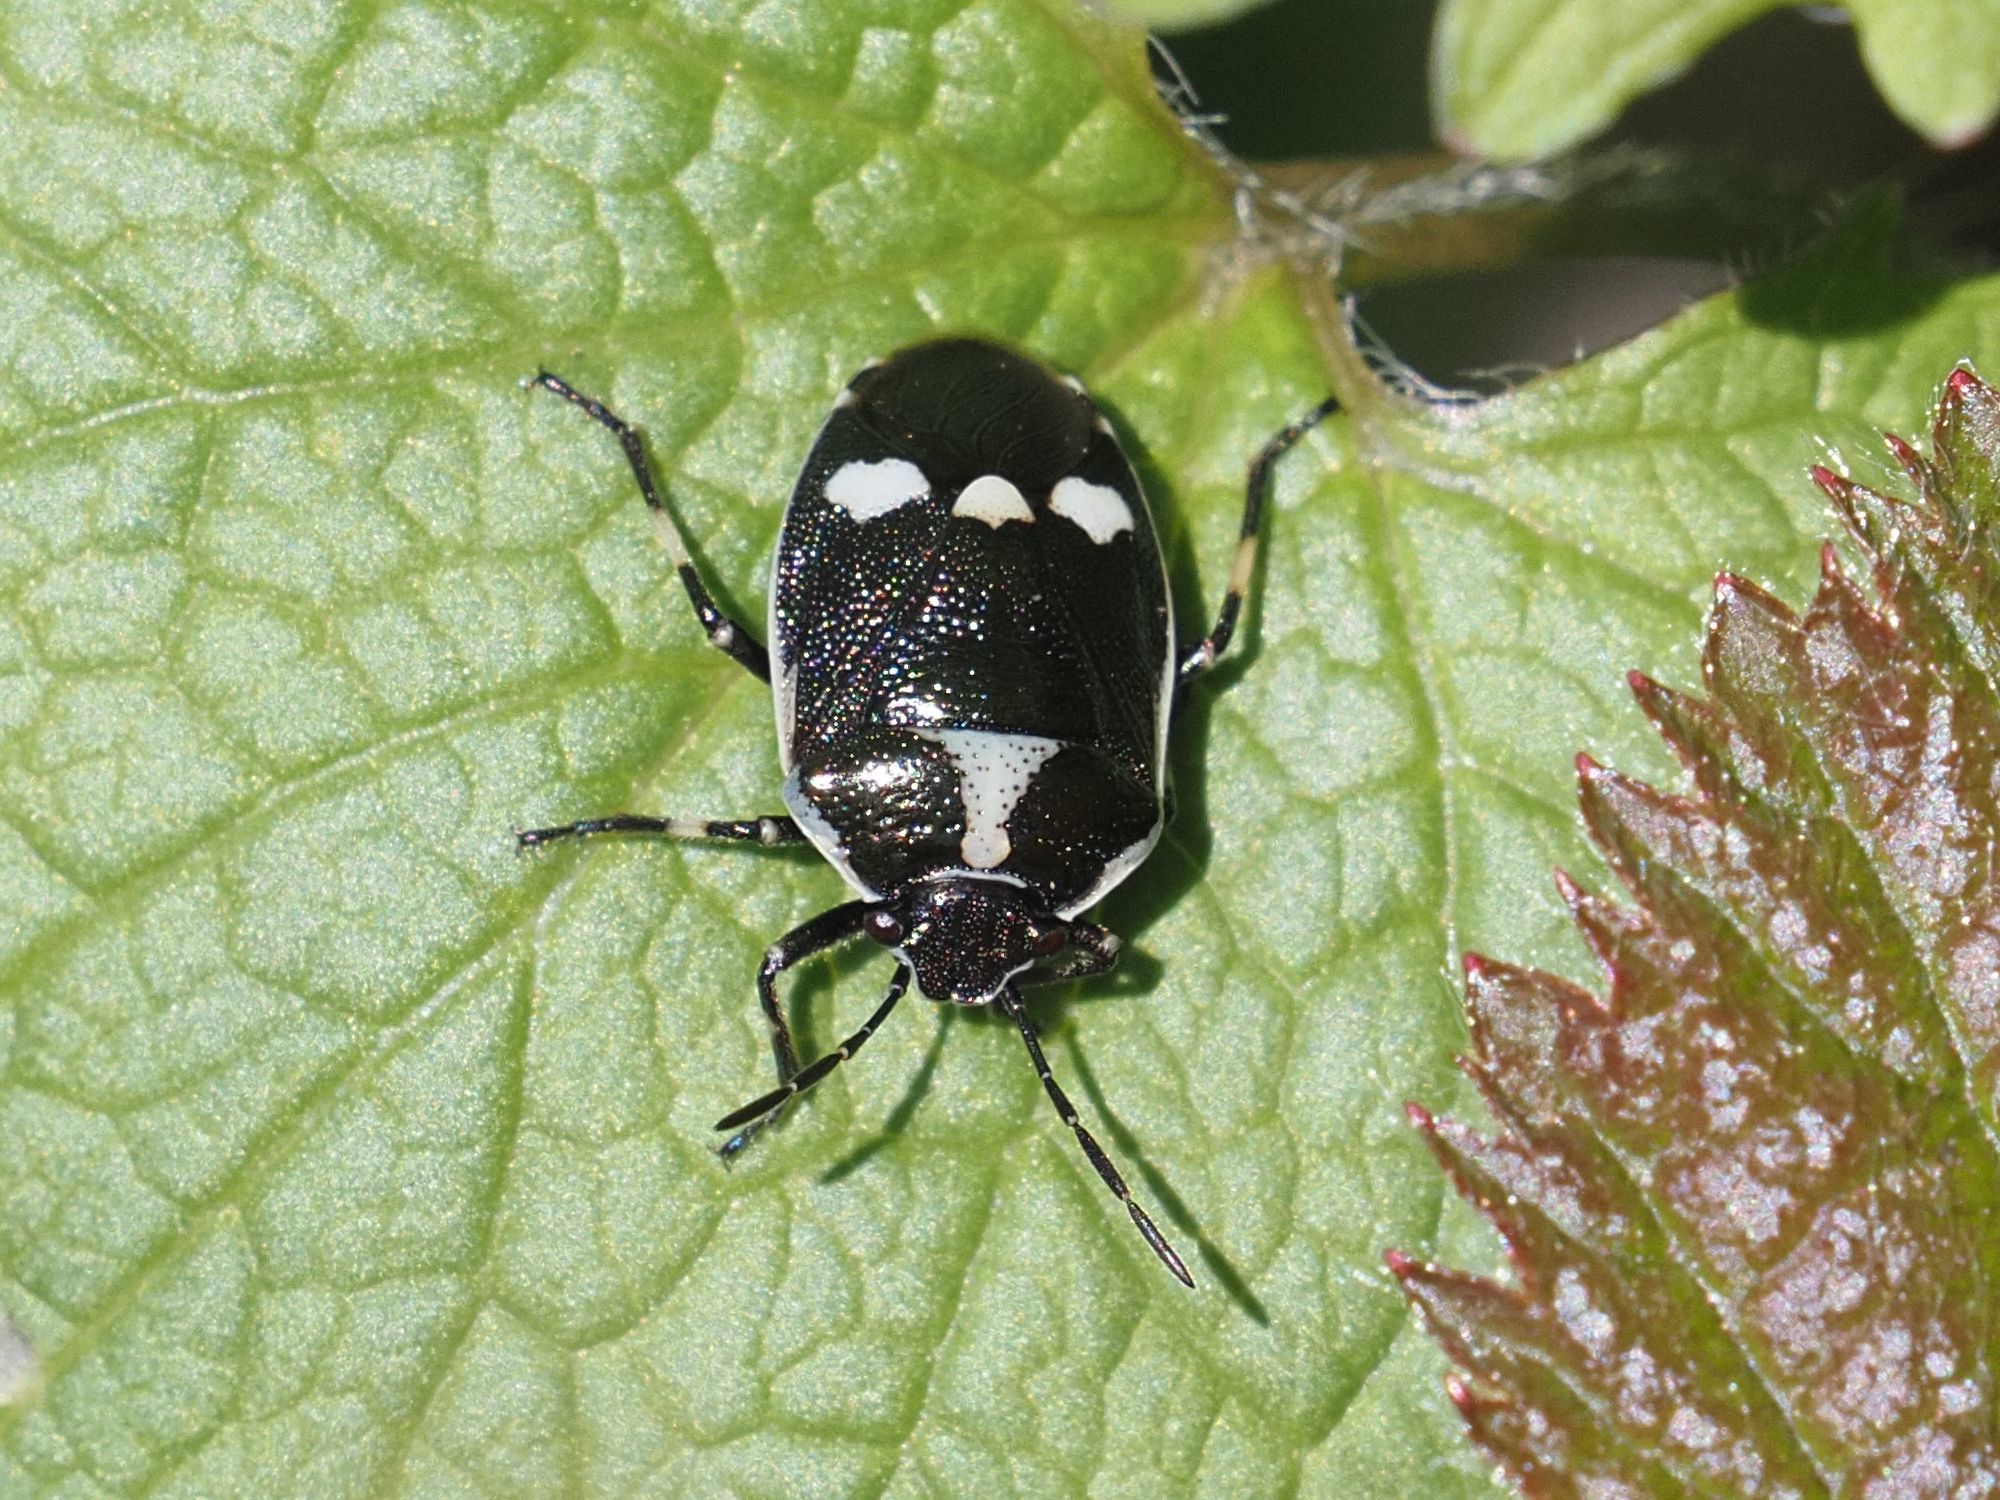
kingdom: Animalia
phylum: Arthropoda
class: Insecta
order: Hemiptera
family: Pentatomidae
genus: Eurydema
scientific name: Eurydema oleracea
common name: Cabbage bug
